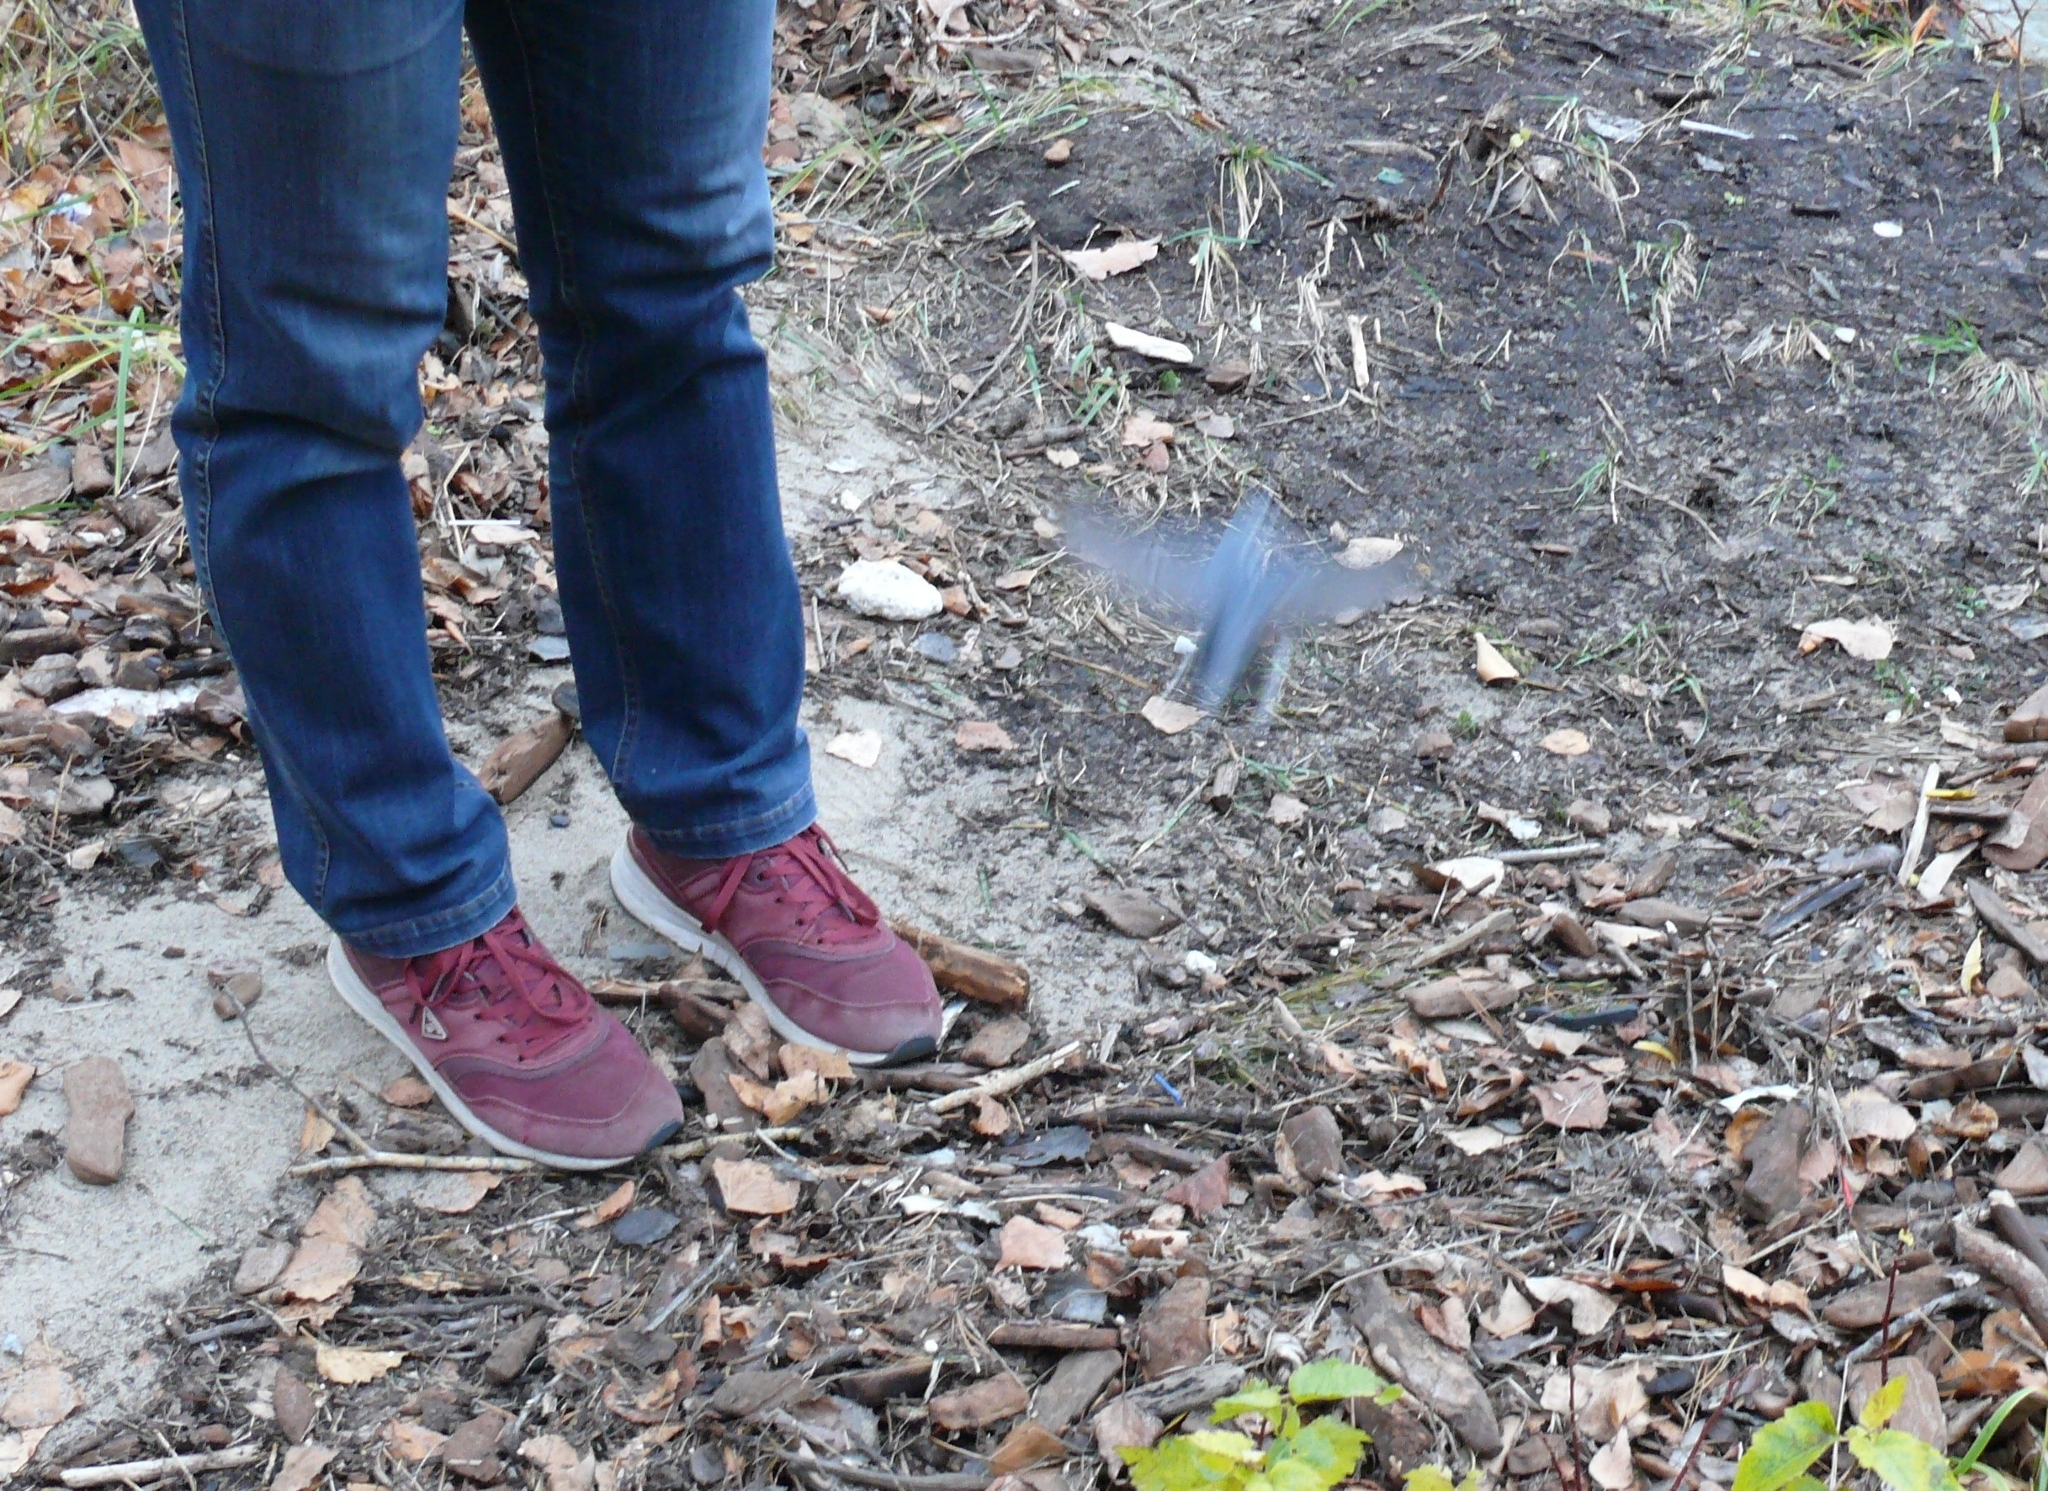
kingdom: Animalia
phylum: Chordata
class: Aves
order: Passeriformes
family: Sittidae
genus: Sitta
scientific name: Sitta europaea
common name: Eurasian nuthatch
